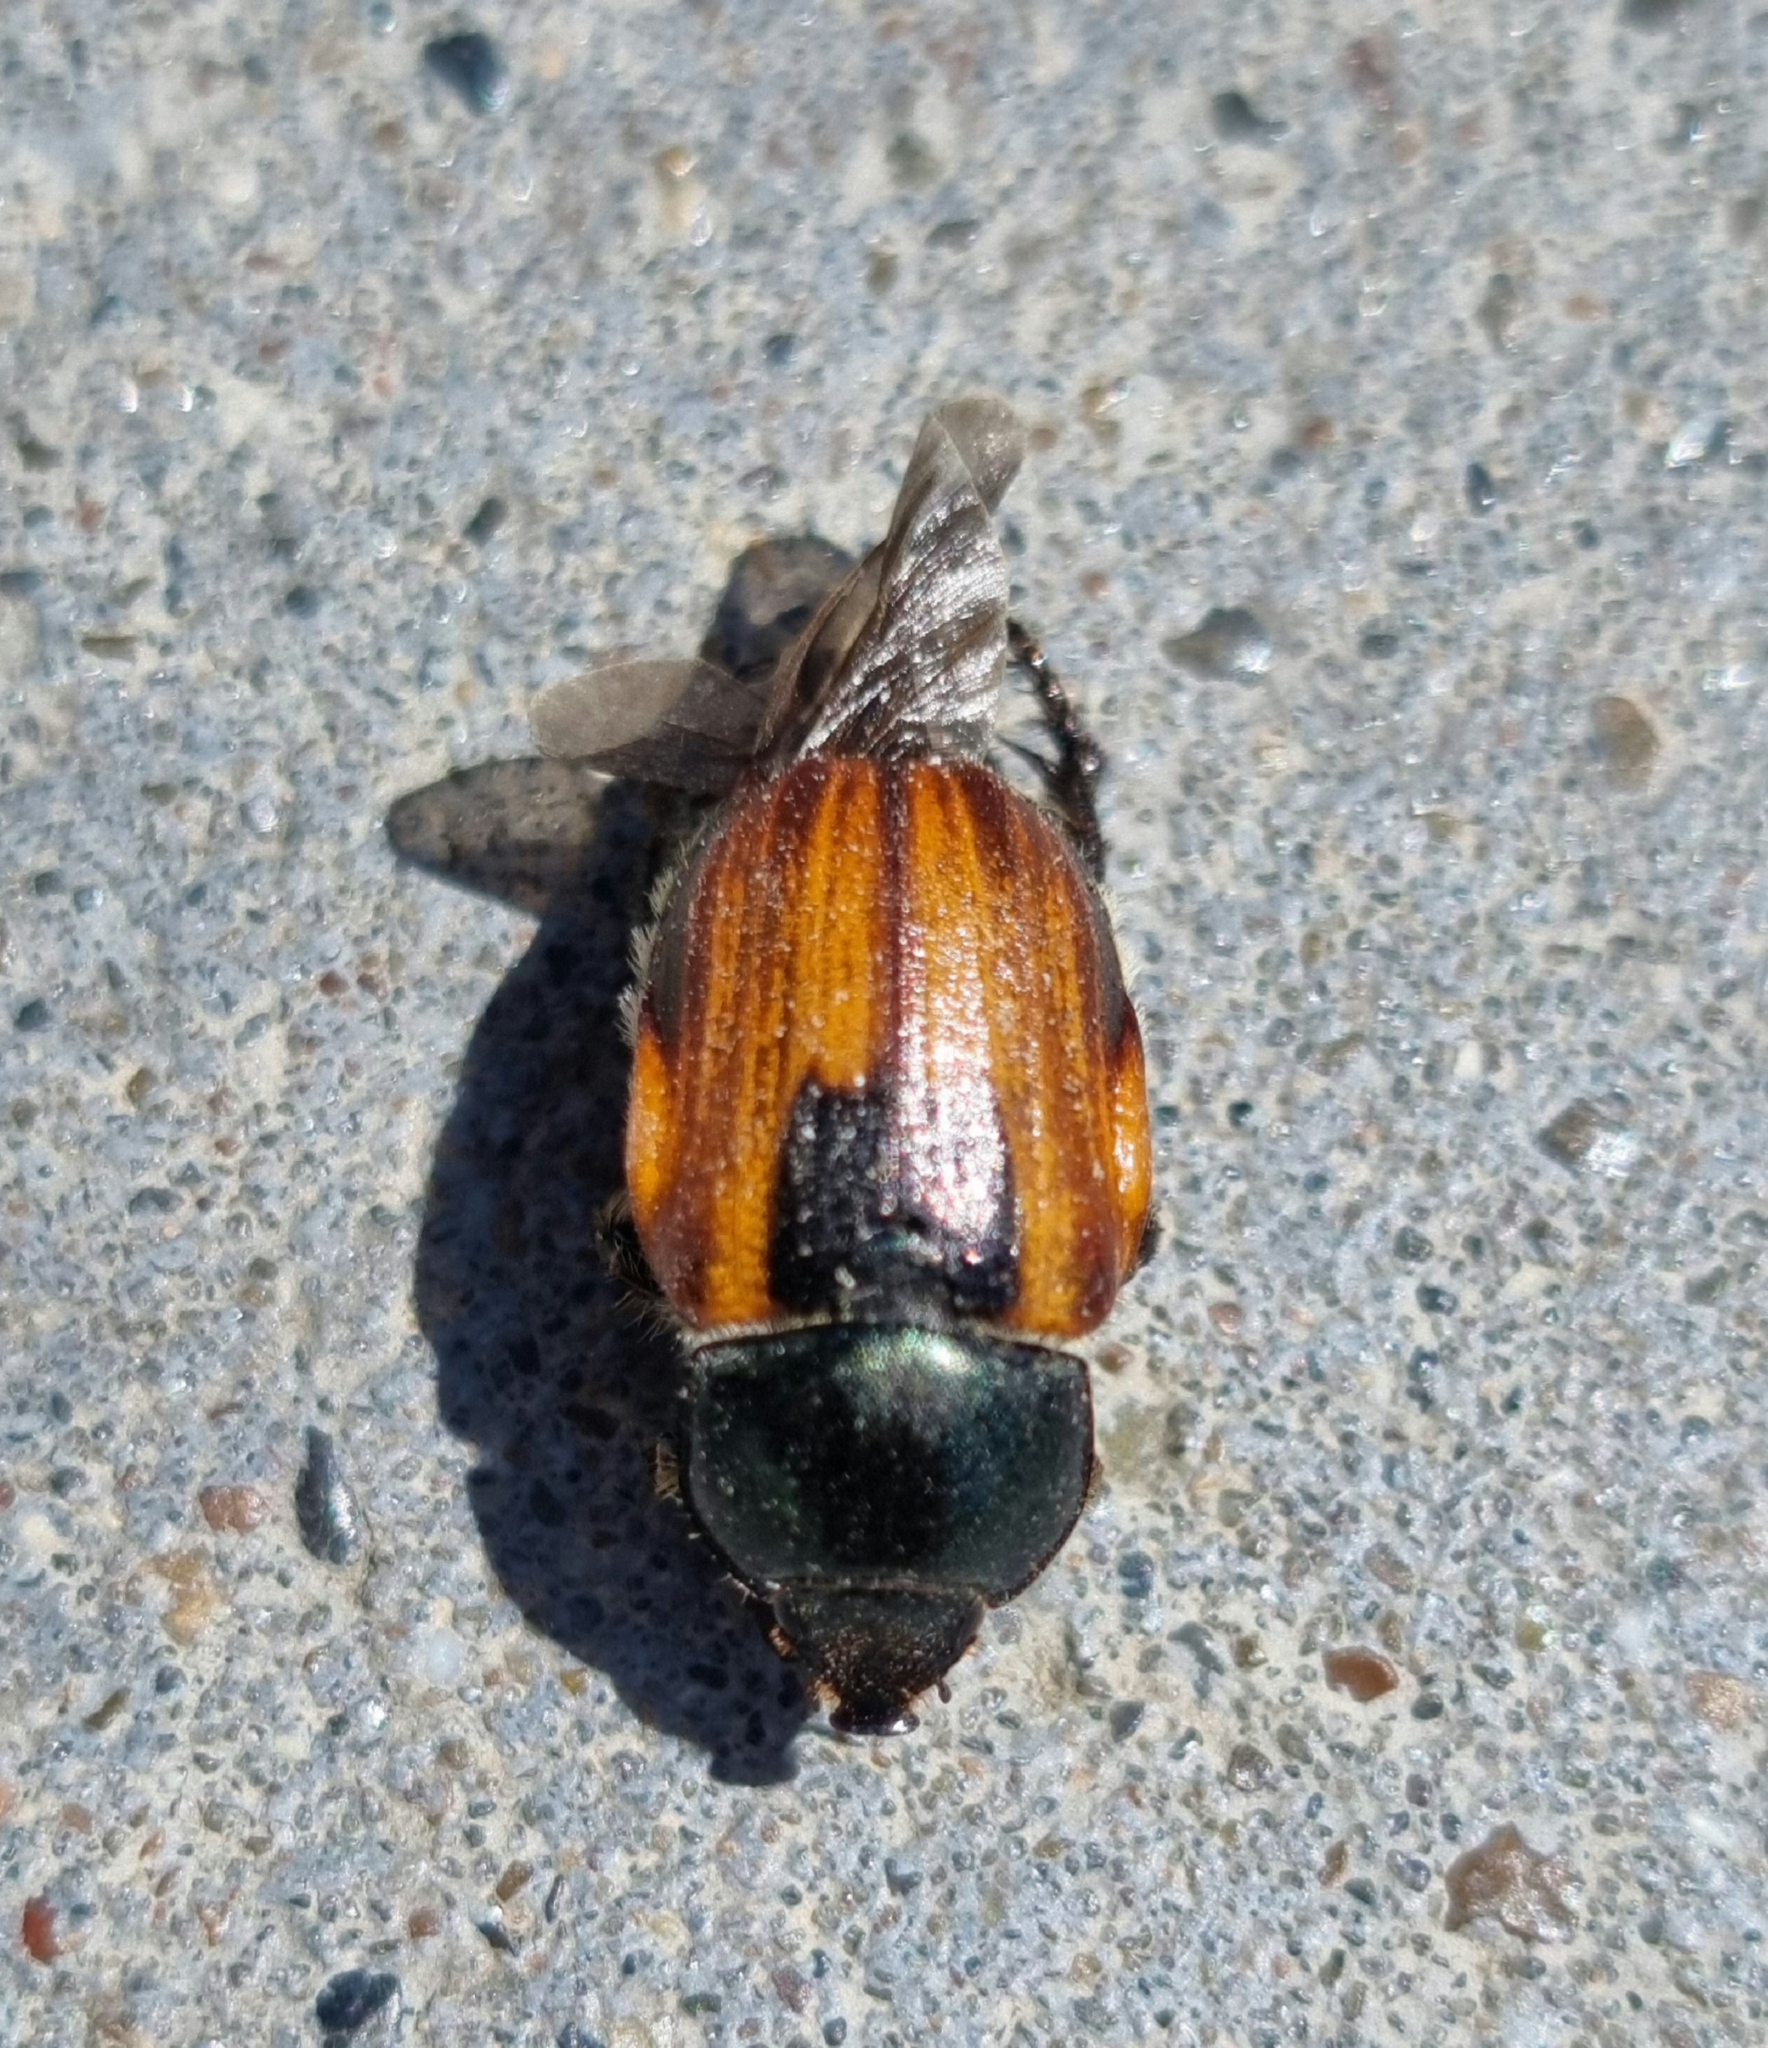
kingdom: Animalia
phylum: Arthropoda
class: Insecta
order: Coleoptera
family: Scarabaeidae
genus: Anisoplia
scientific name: Anisoplia austriaca
